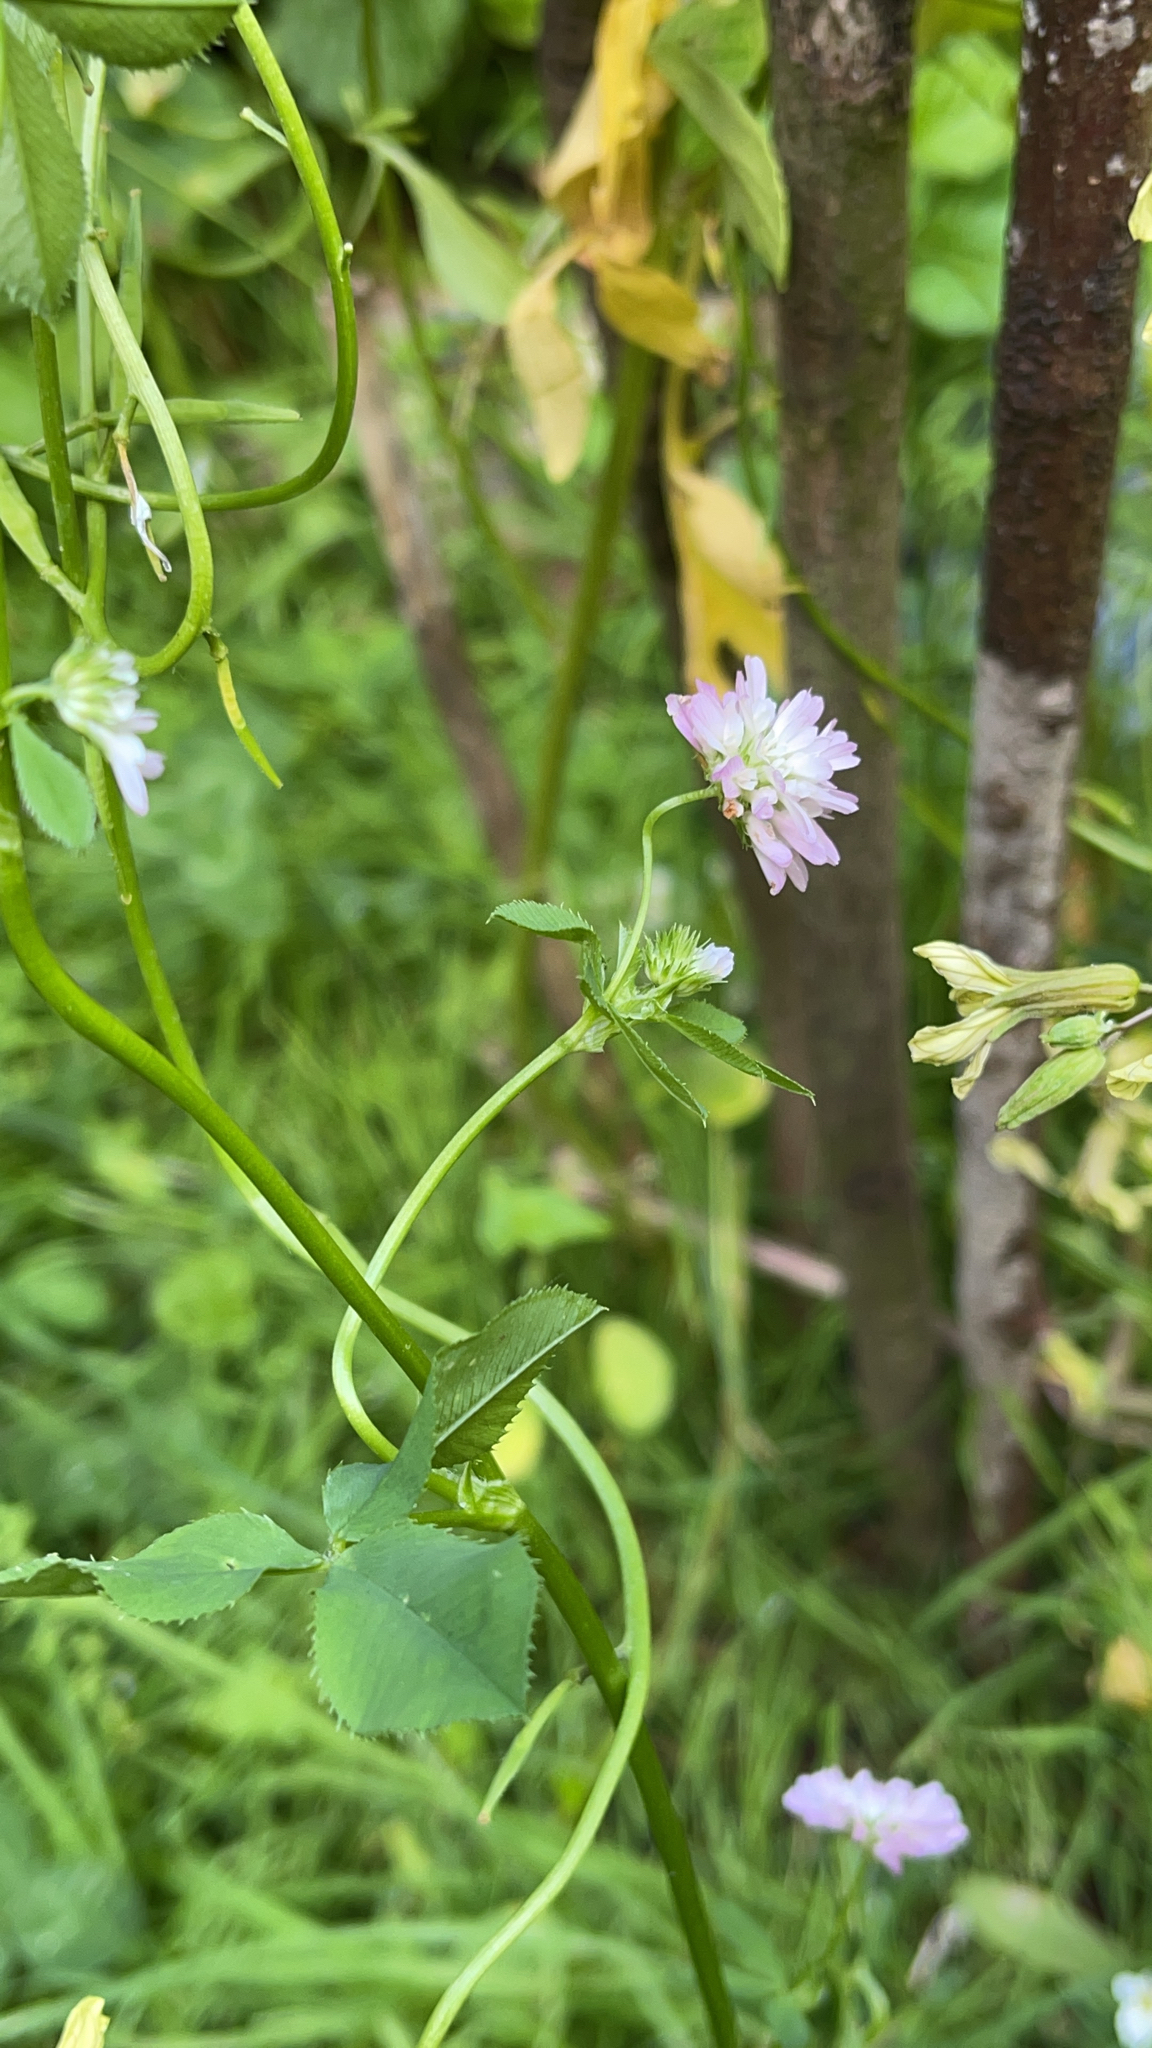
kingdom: Plantae
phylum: Tracheophyta
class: Magnoliopsida
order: Fabales
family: Fabaceae
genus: Trifolium
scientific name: Trifolium resupinatum
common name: Reversed clover
